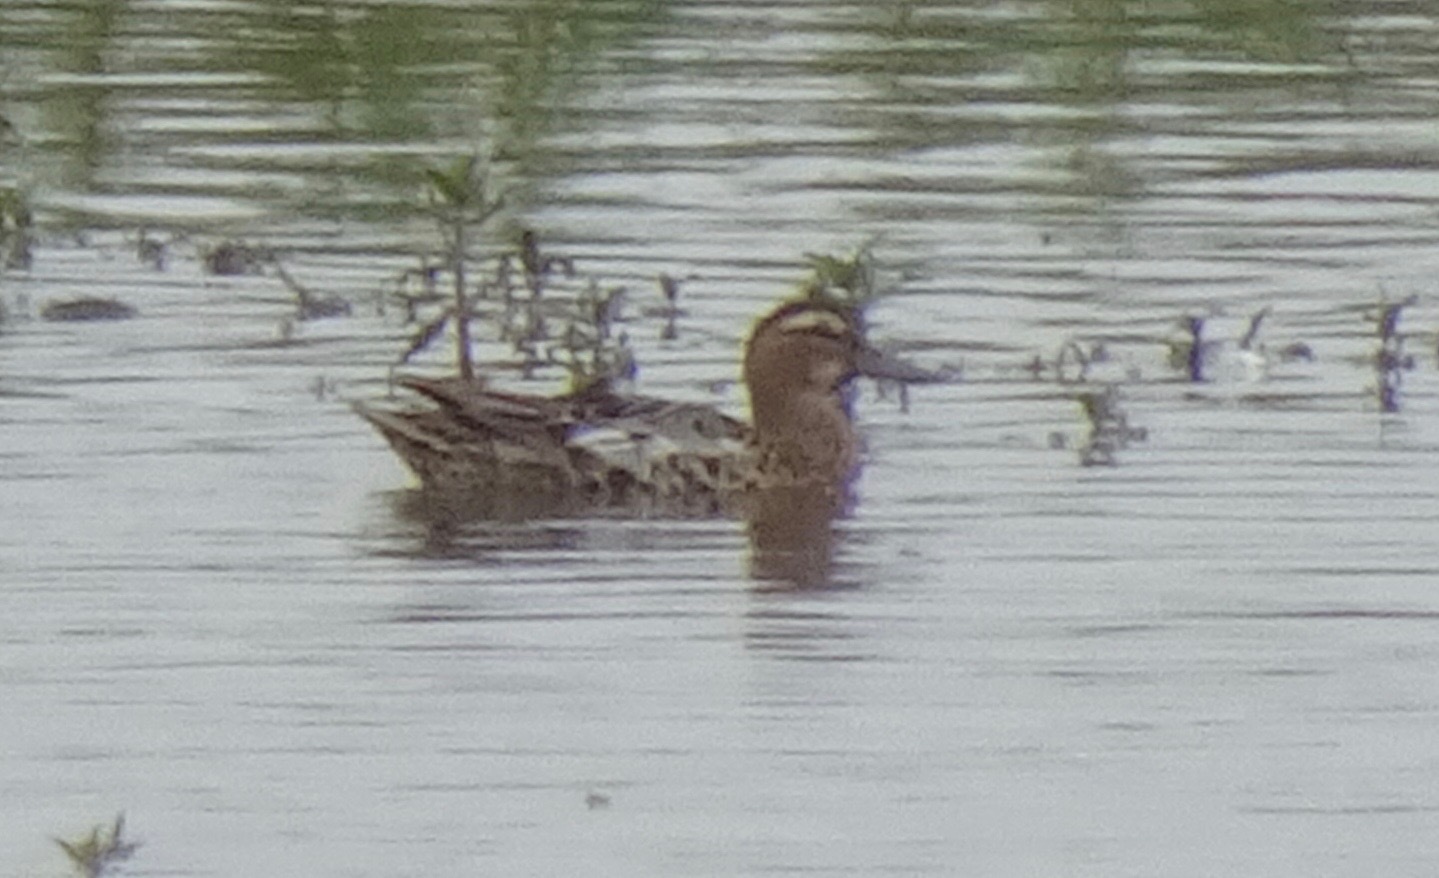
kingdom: Animalia
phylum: Chordata
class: Aves
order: Anseriformes
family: Anatidae
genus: Spatula
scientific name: Spatula querquedula
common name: Garganey
